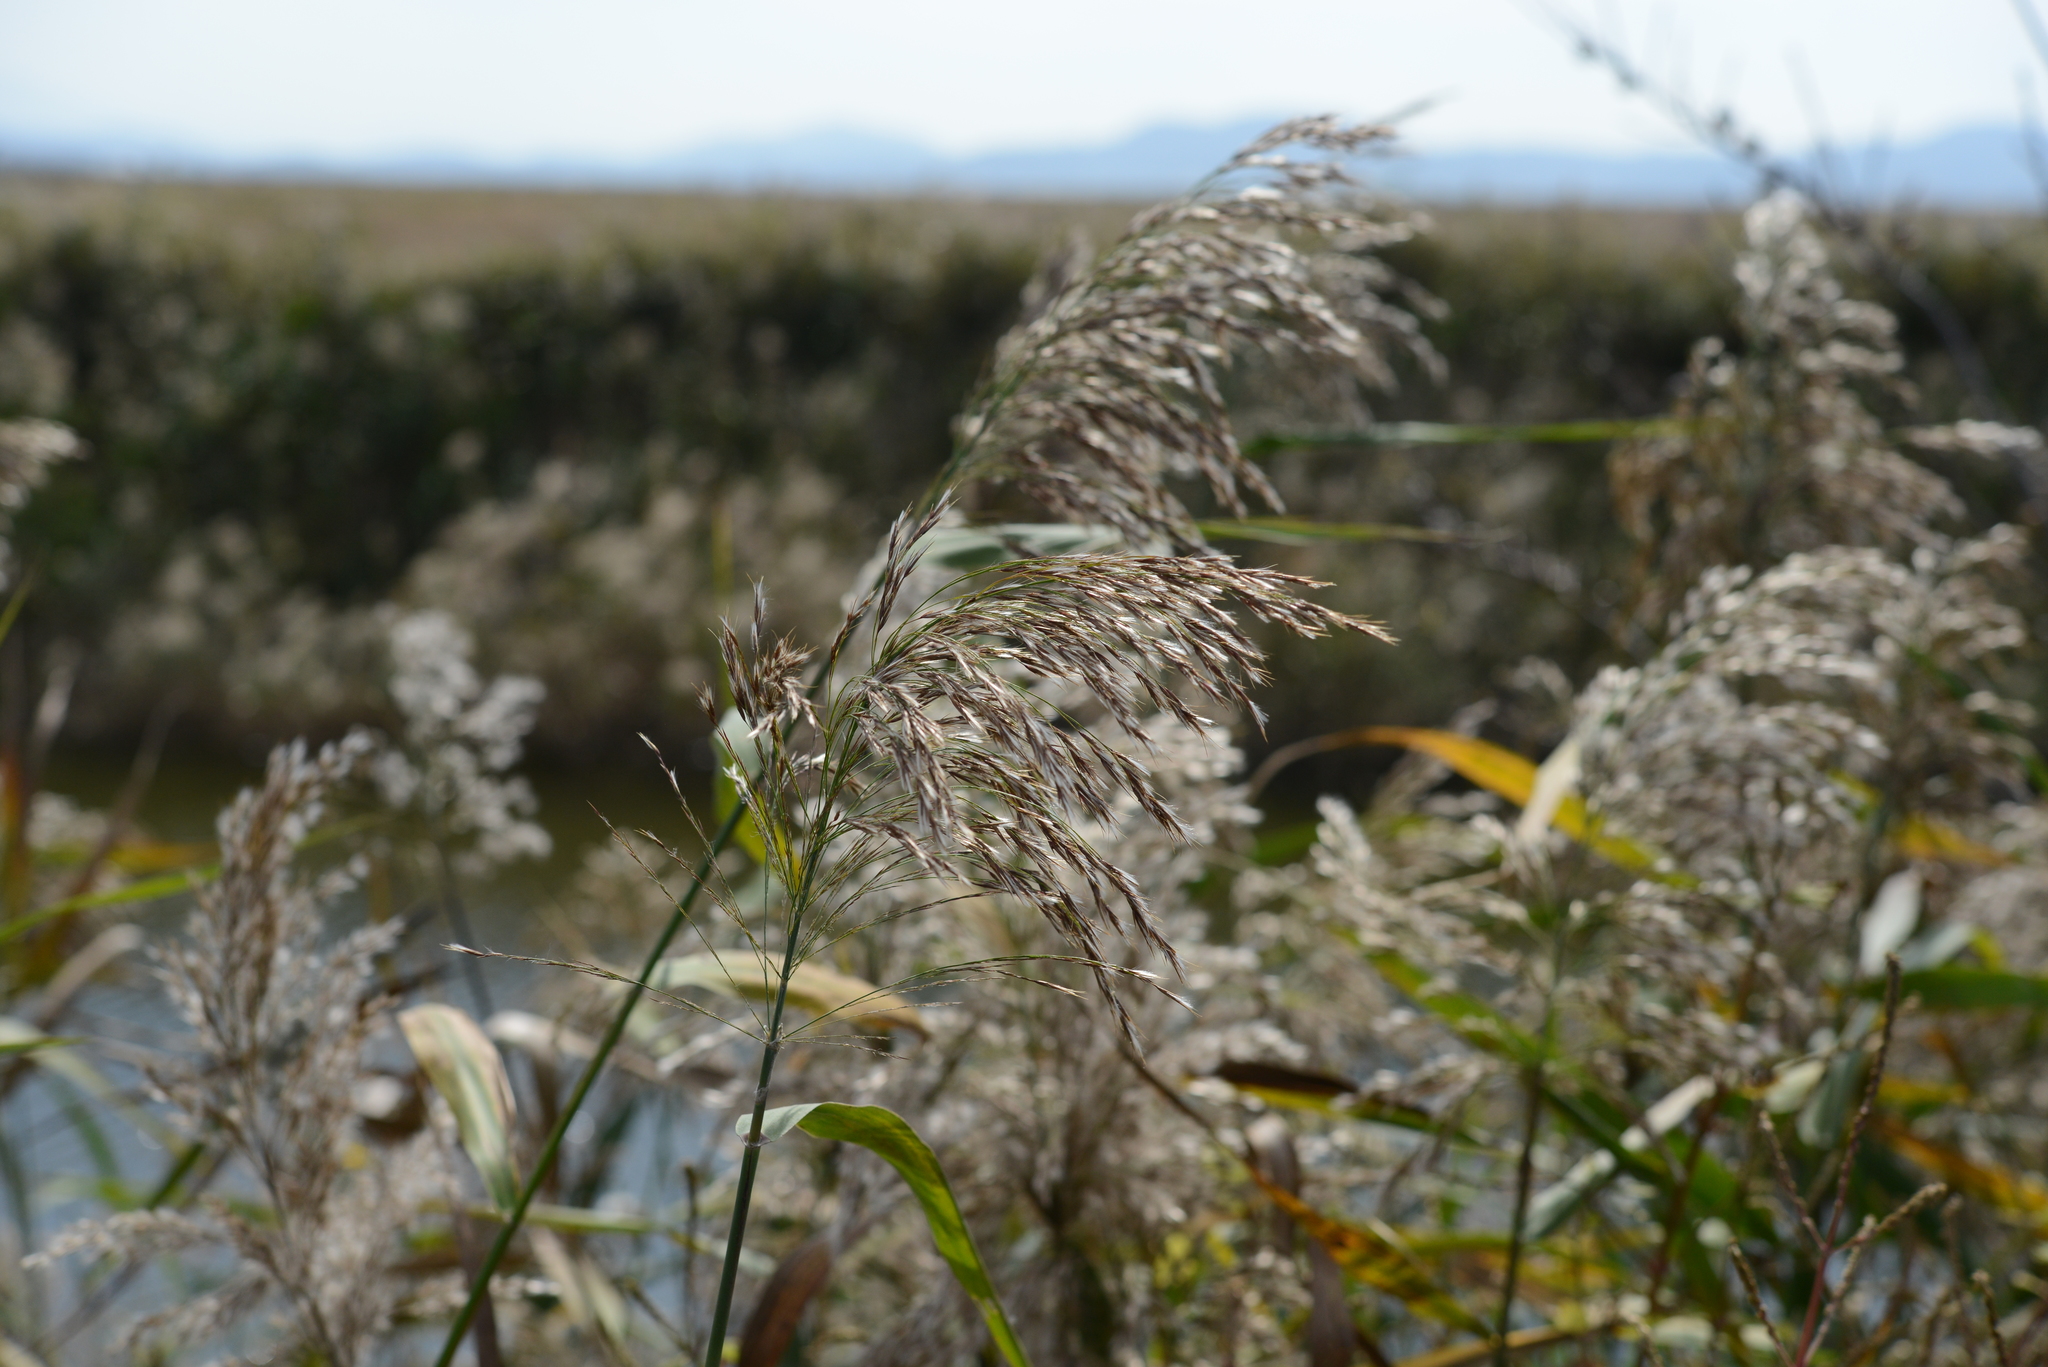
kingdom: Plantae
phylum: Tracheophyta
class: Liliopsida
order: Poales
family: Poaceae
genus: Phragmites
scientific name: Phragmites australis
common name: Common reed
